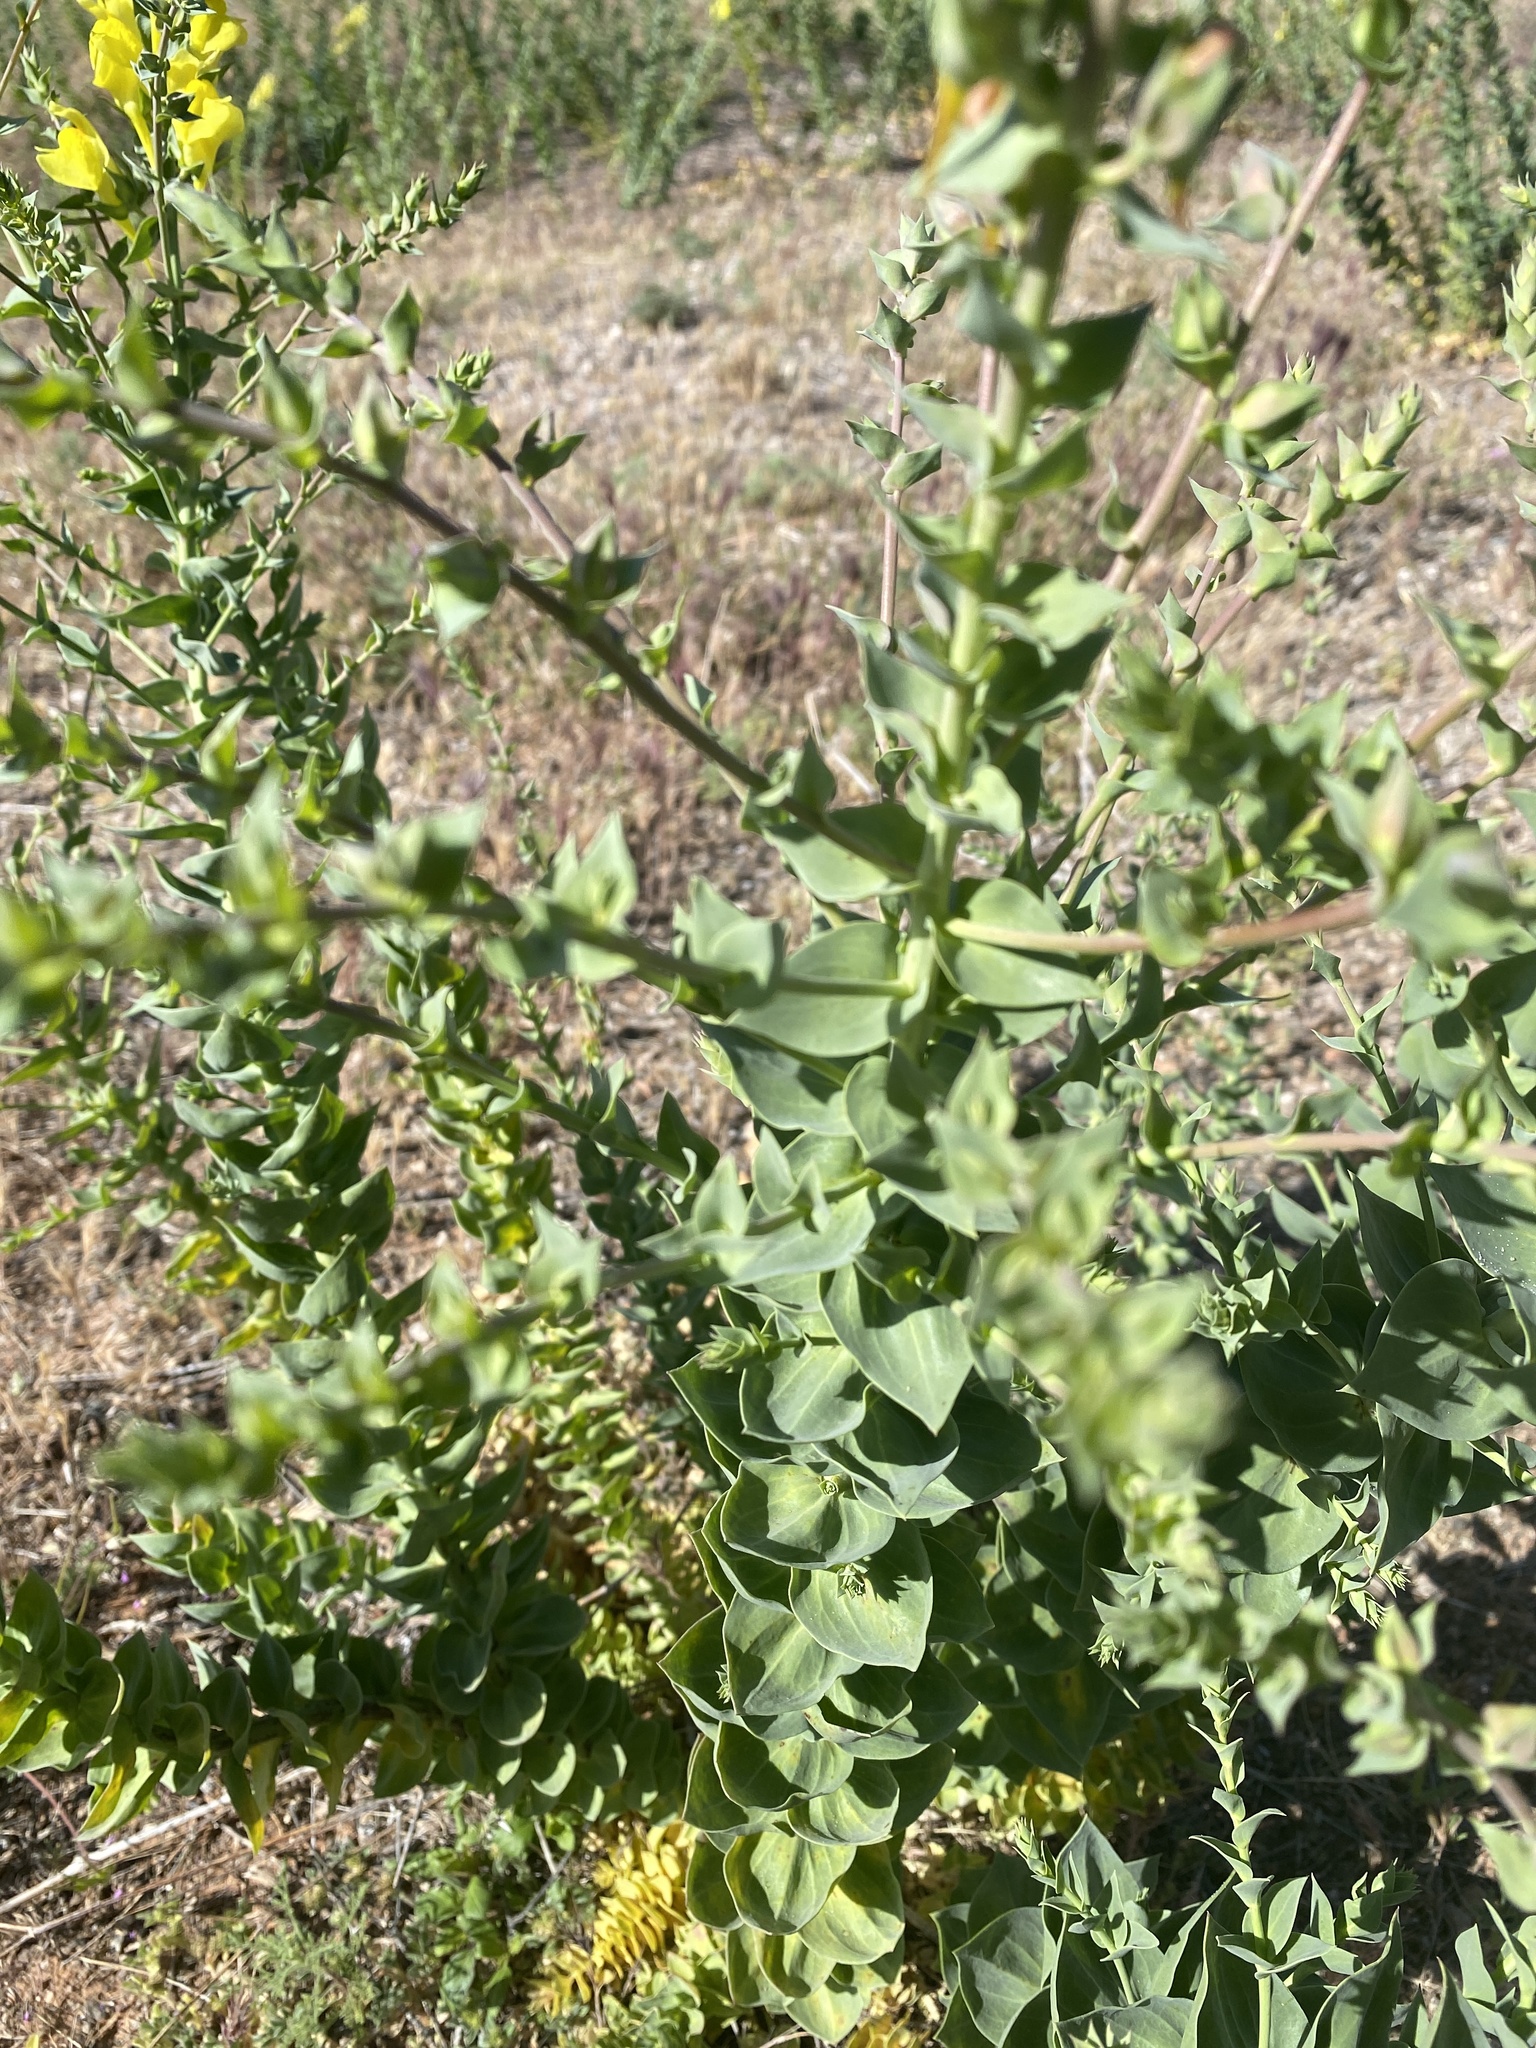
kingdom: Plantae
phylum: Tracheophyta
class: Magnoliopsida
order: Lamiales
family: Plantaginaceae
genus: Linaria
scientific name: Linaria dalmatica
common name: Dalmatian toadflax
